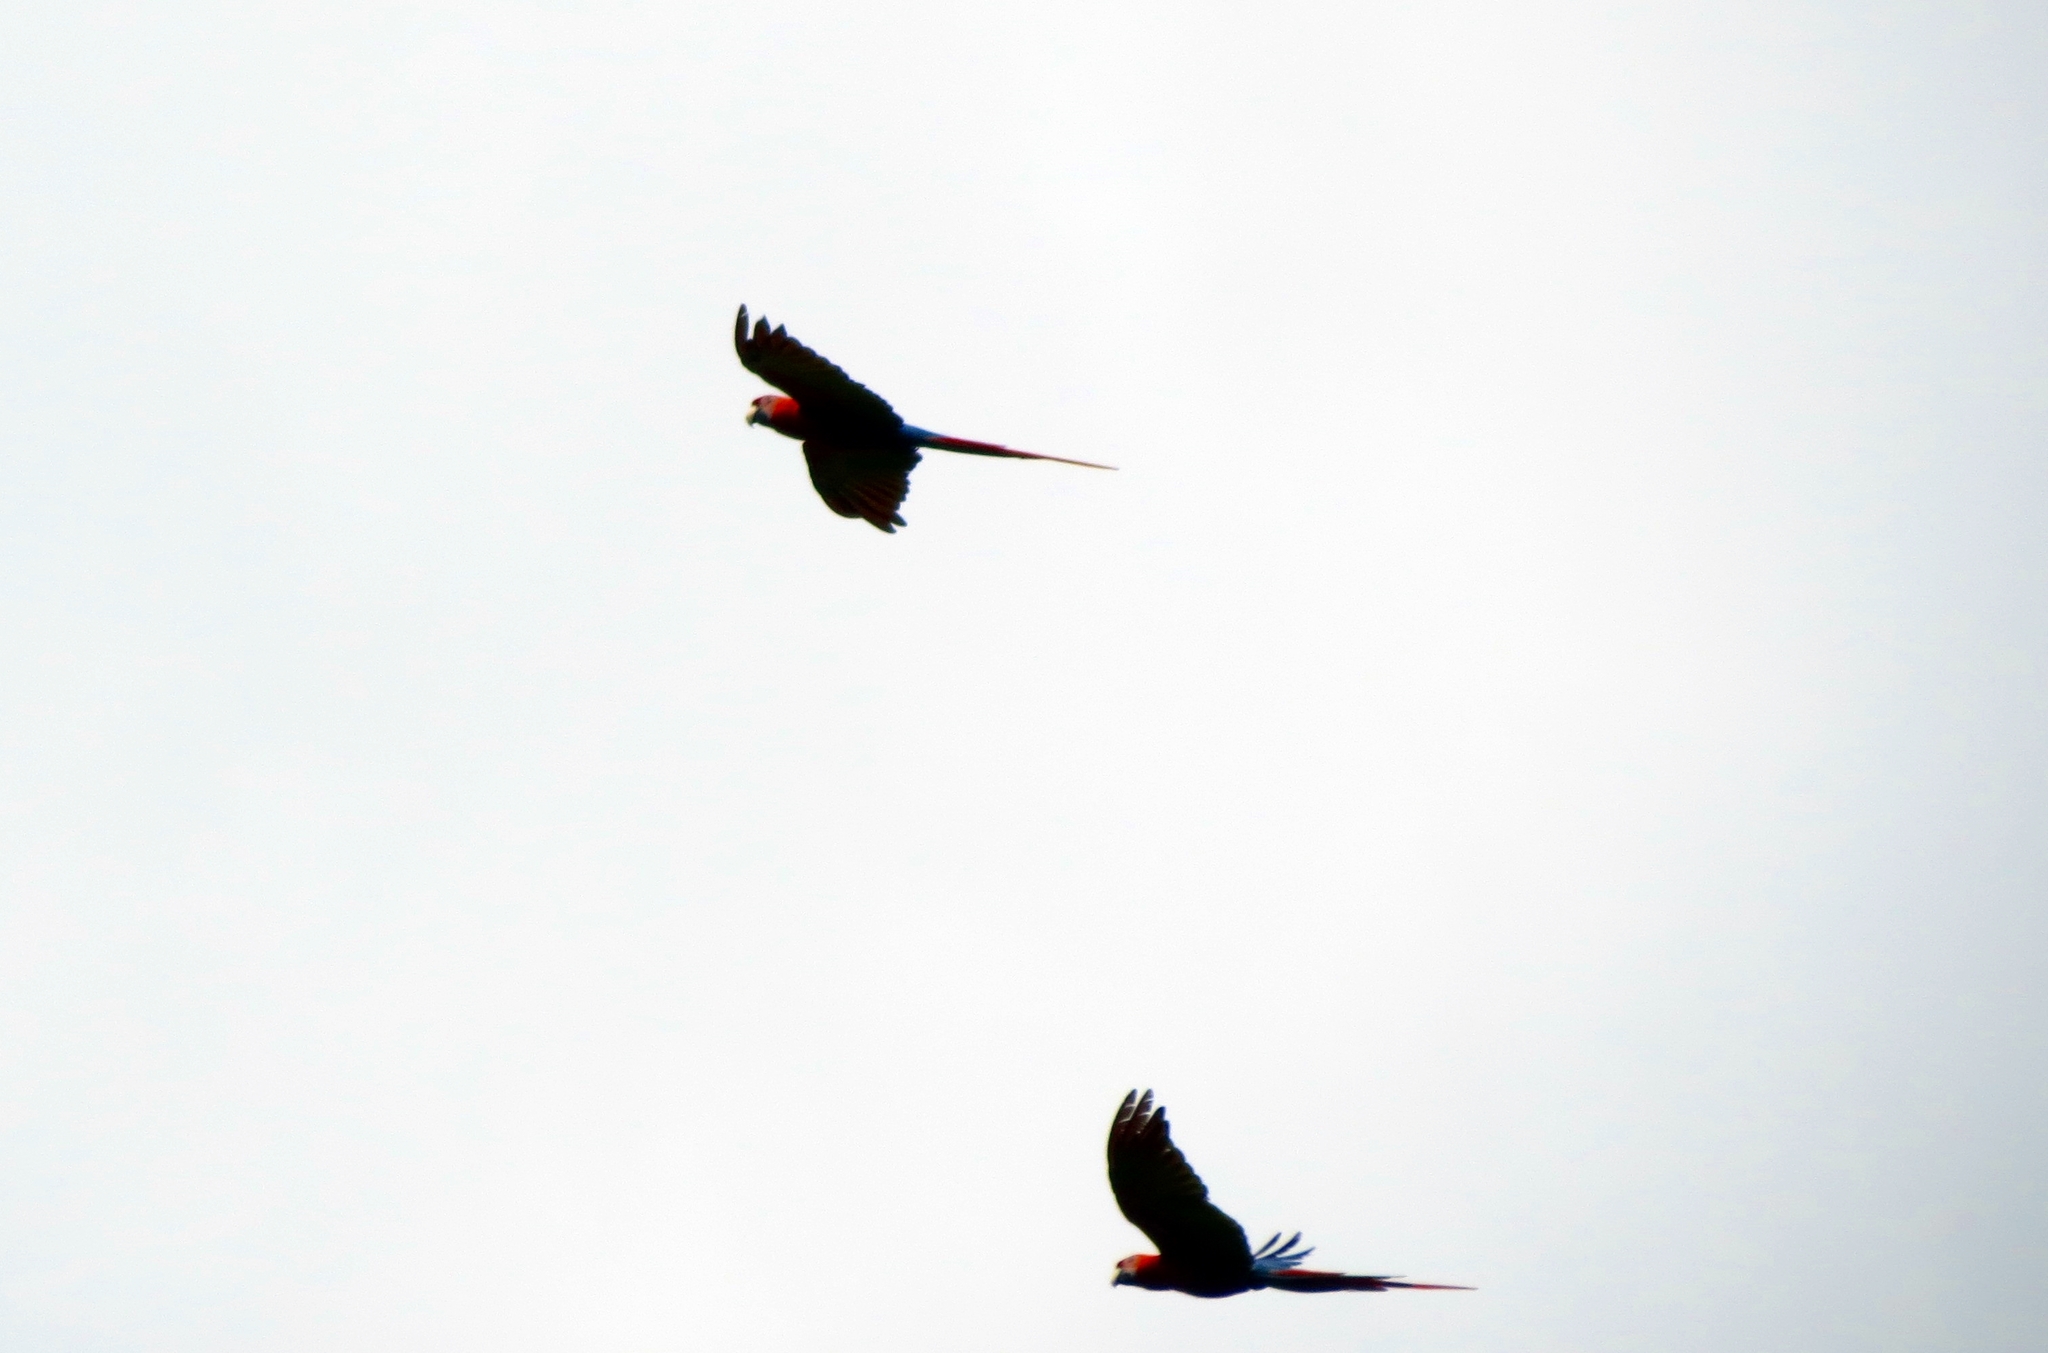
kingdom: Animalia
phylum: Chordata
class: Aves
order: Psittaciformes
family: Psittacidae
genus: Ara
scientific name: Ara macao
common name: Scarlet macaw
